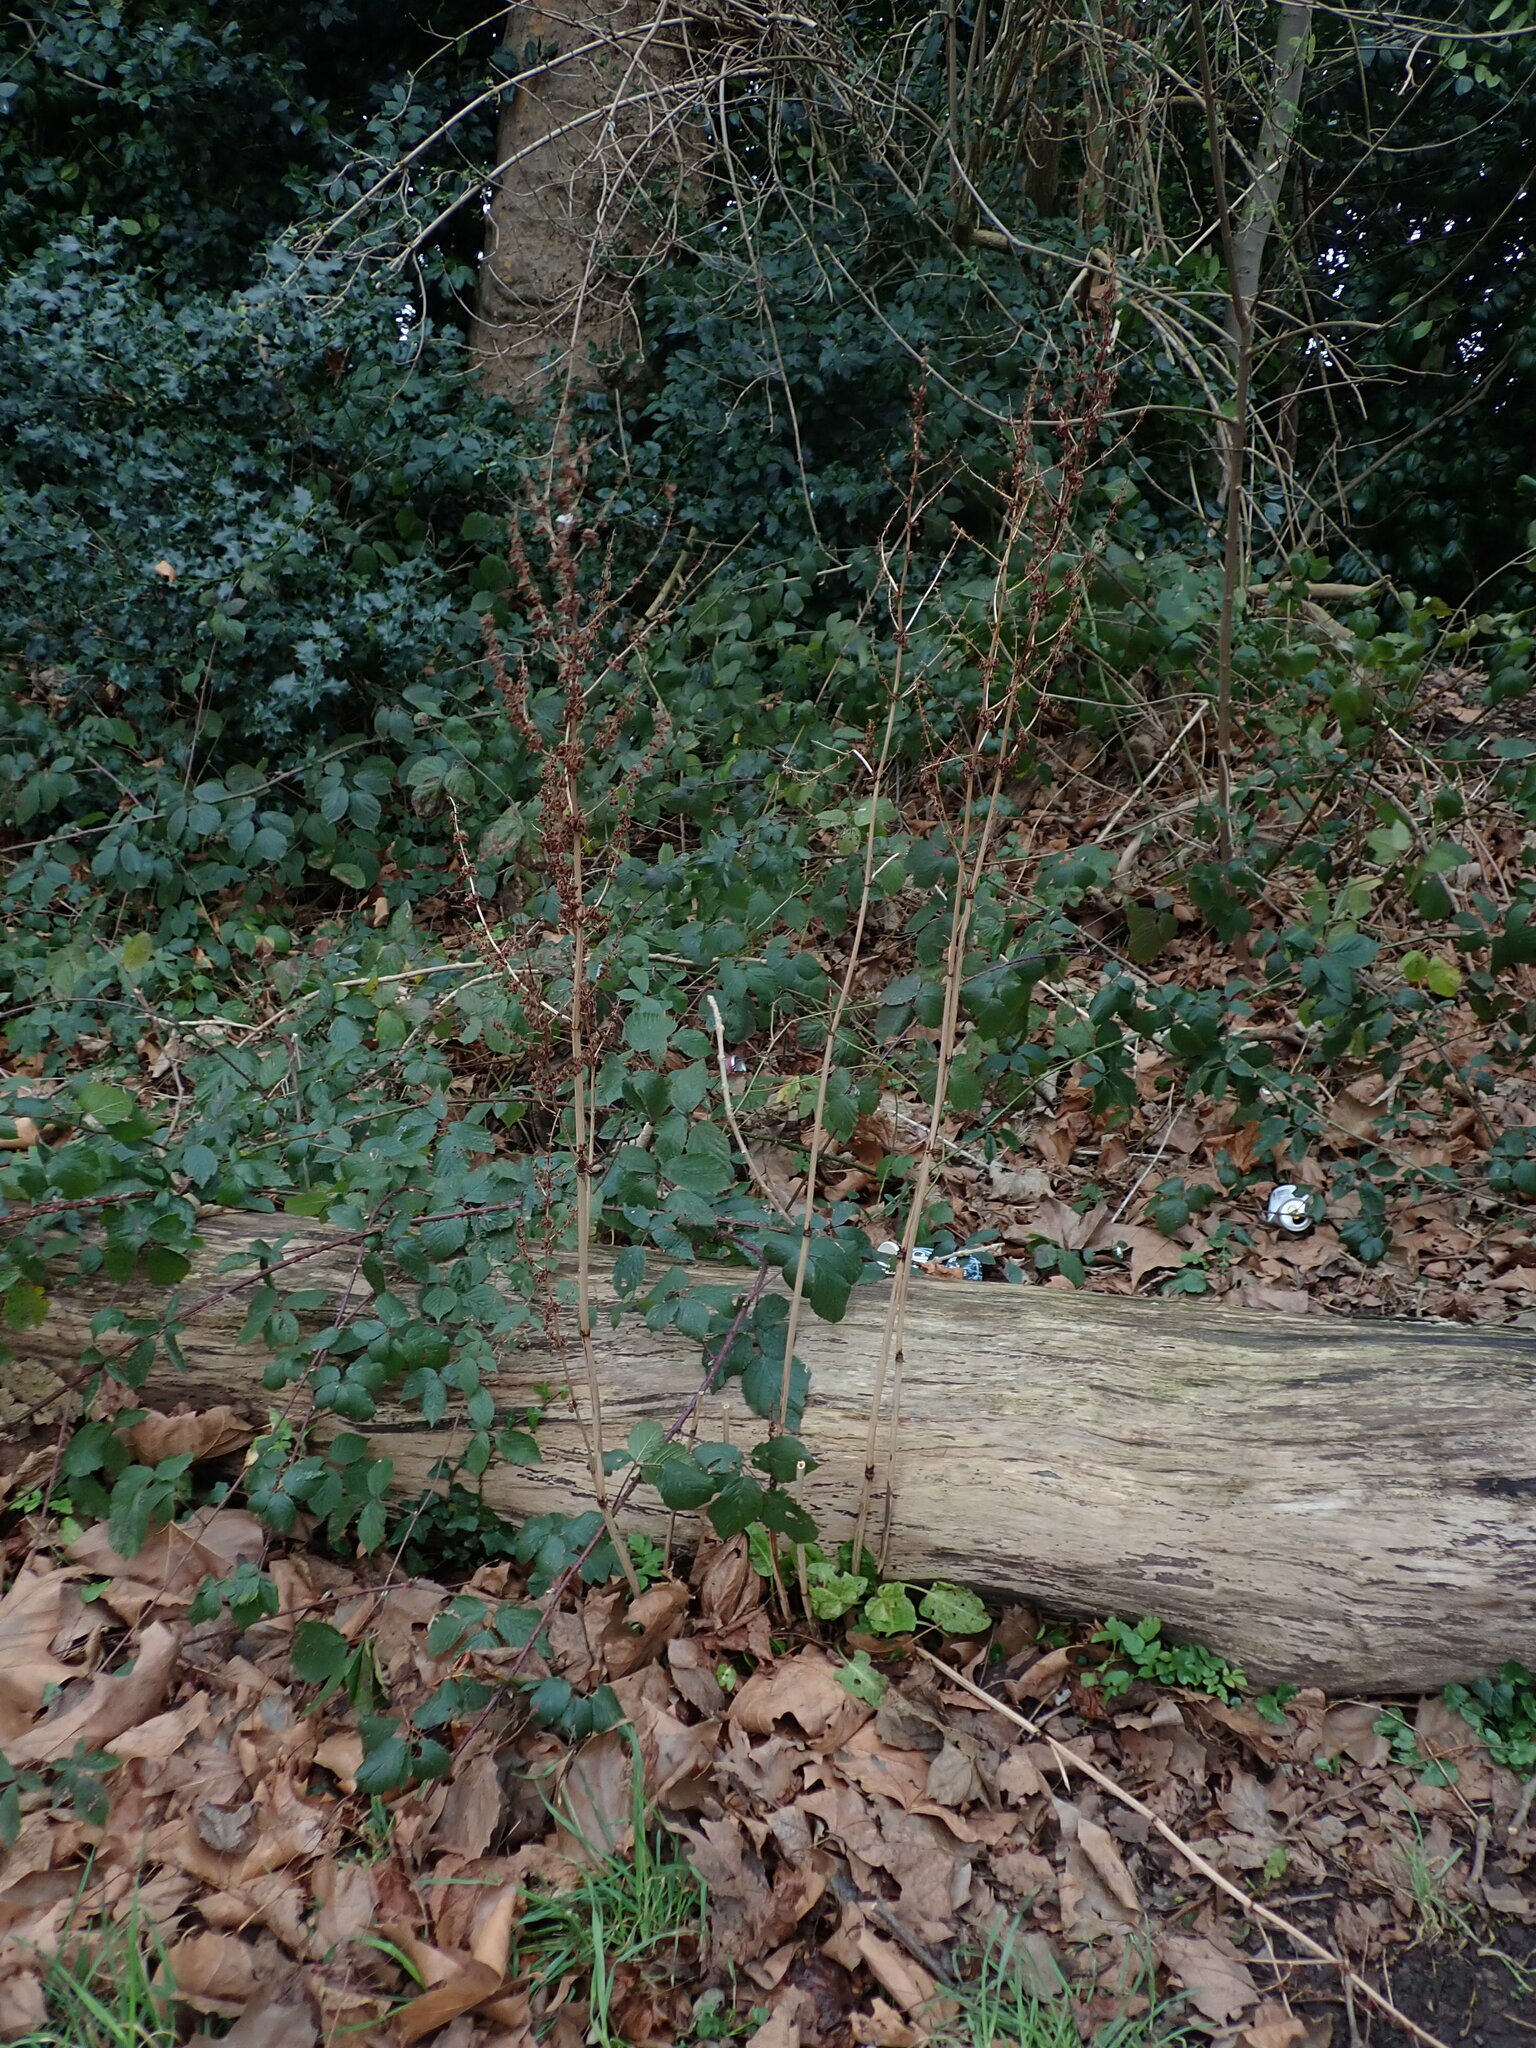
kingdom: Plantae
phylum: Tracheophyta
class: Magnoliopsida
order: Caryophyllales
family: Polygonaceae
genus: Rumex
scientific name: Rumex obtusifolius
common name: Bitter dock
